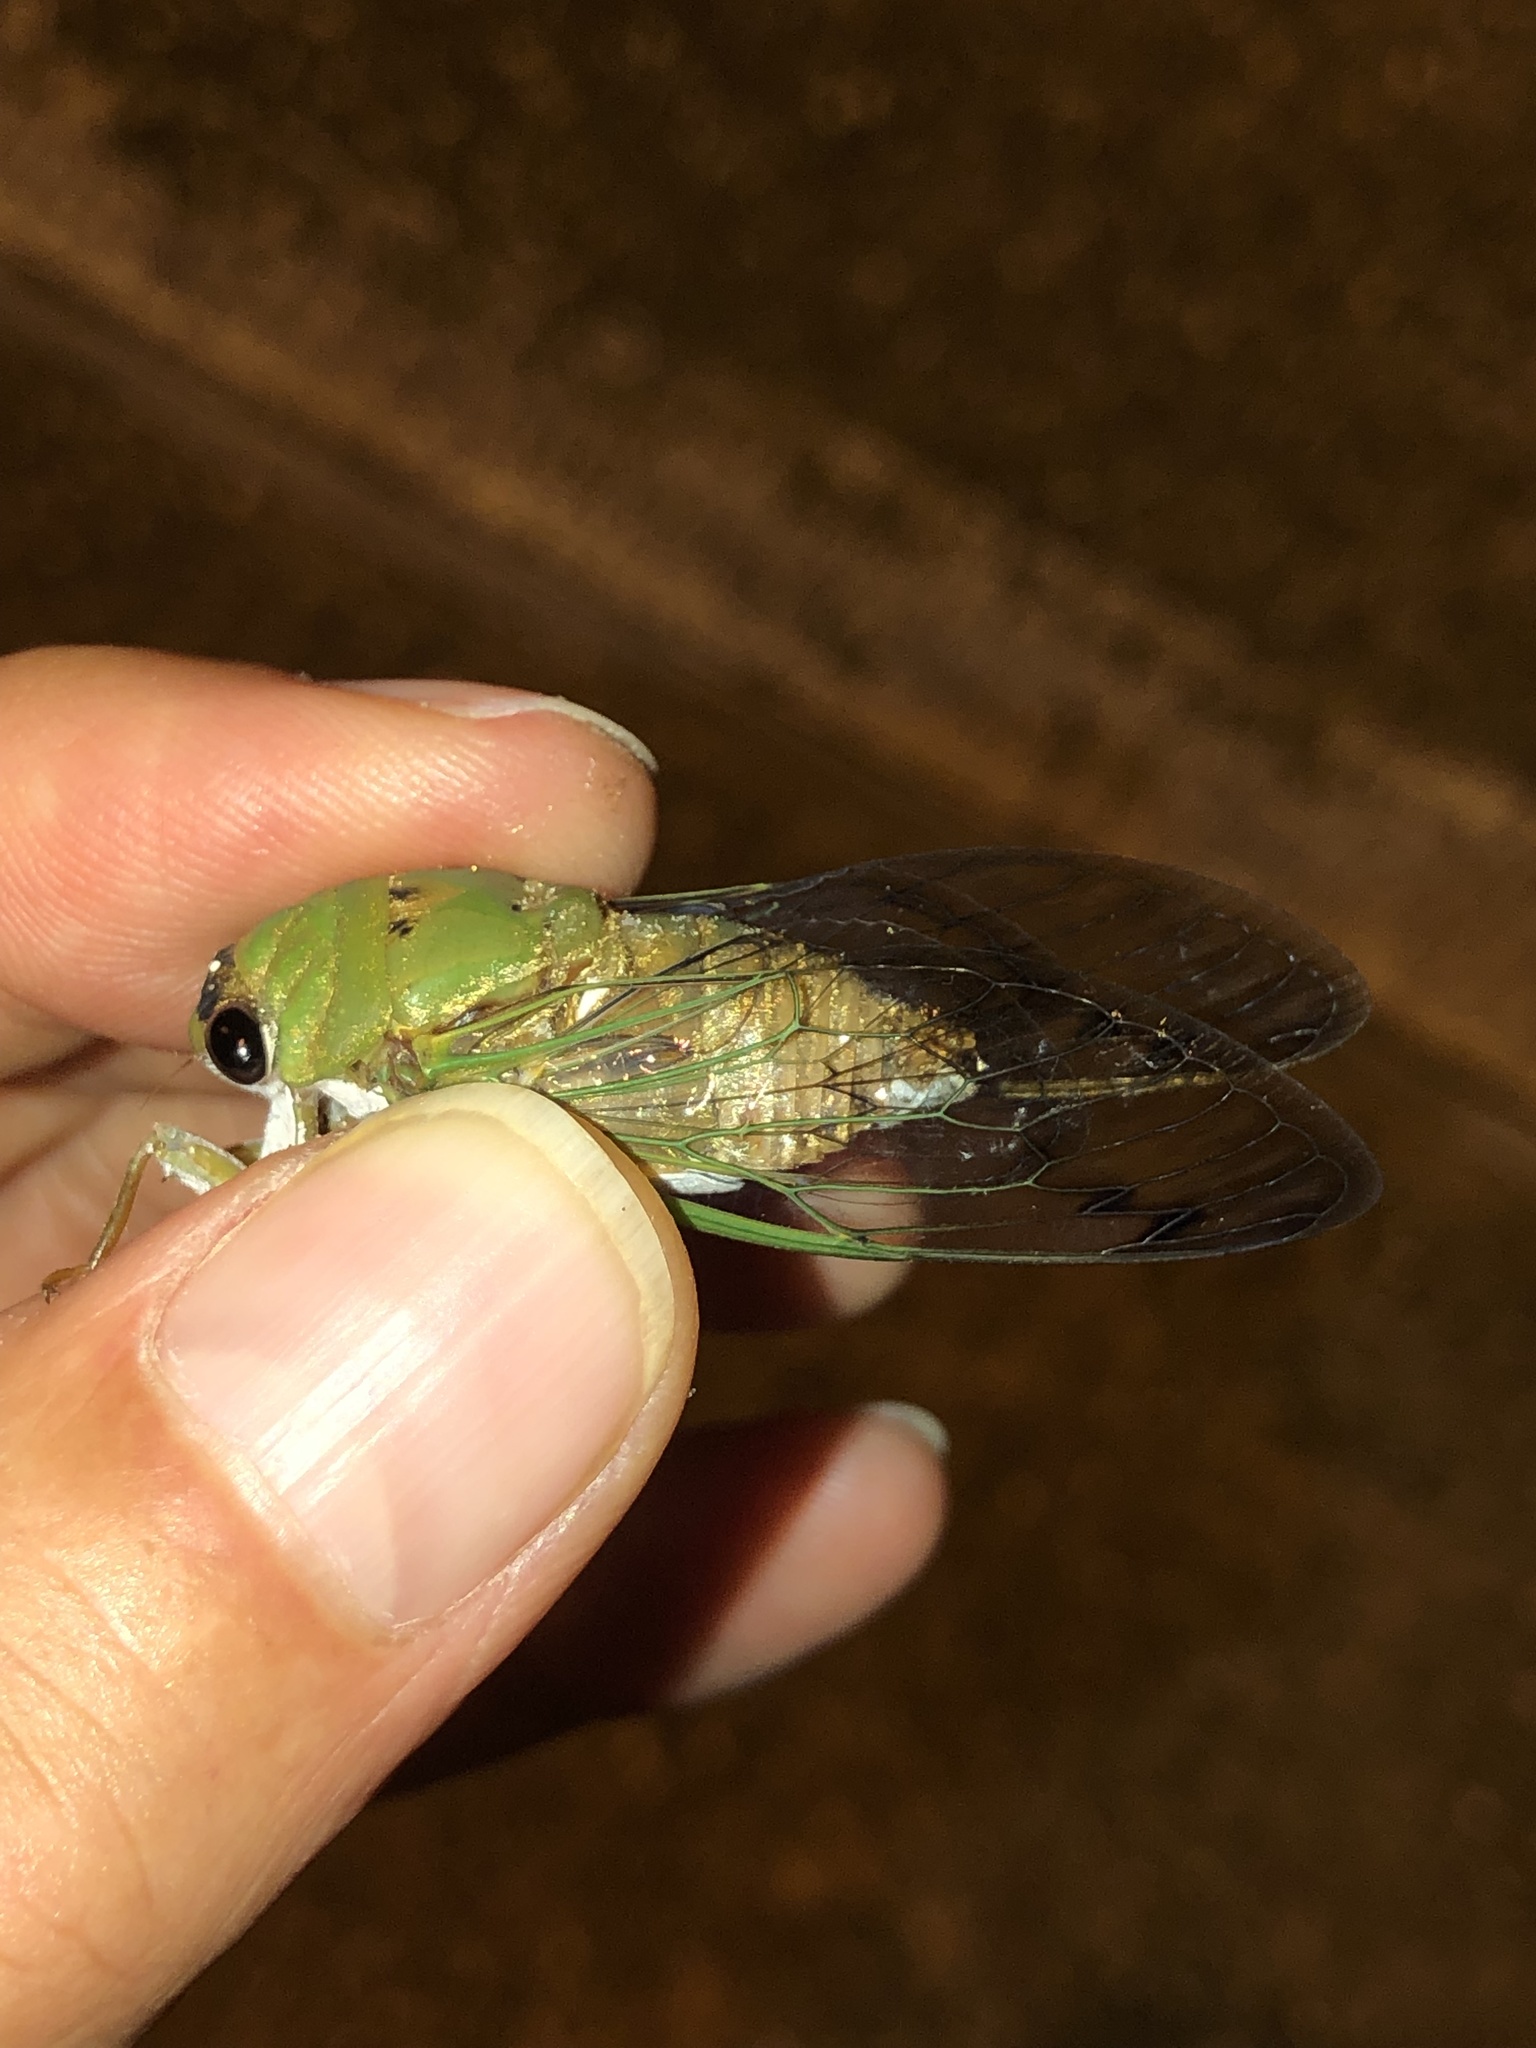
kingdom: Animalia
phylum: Arthropoda
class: Insecta
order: Hemiptera
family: Cicadidae
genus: Neotibicen
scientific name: Neotibicen superbus
